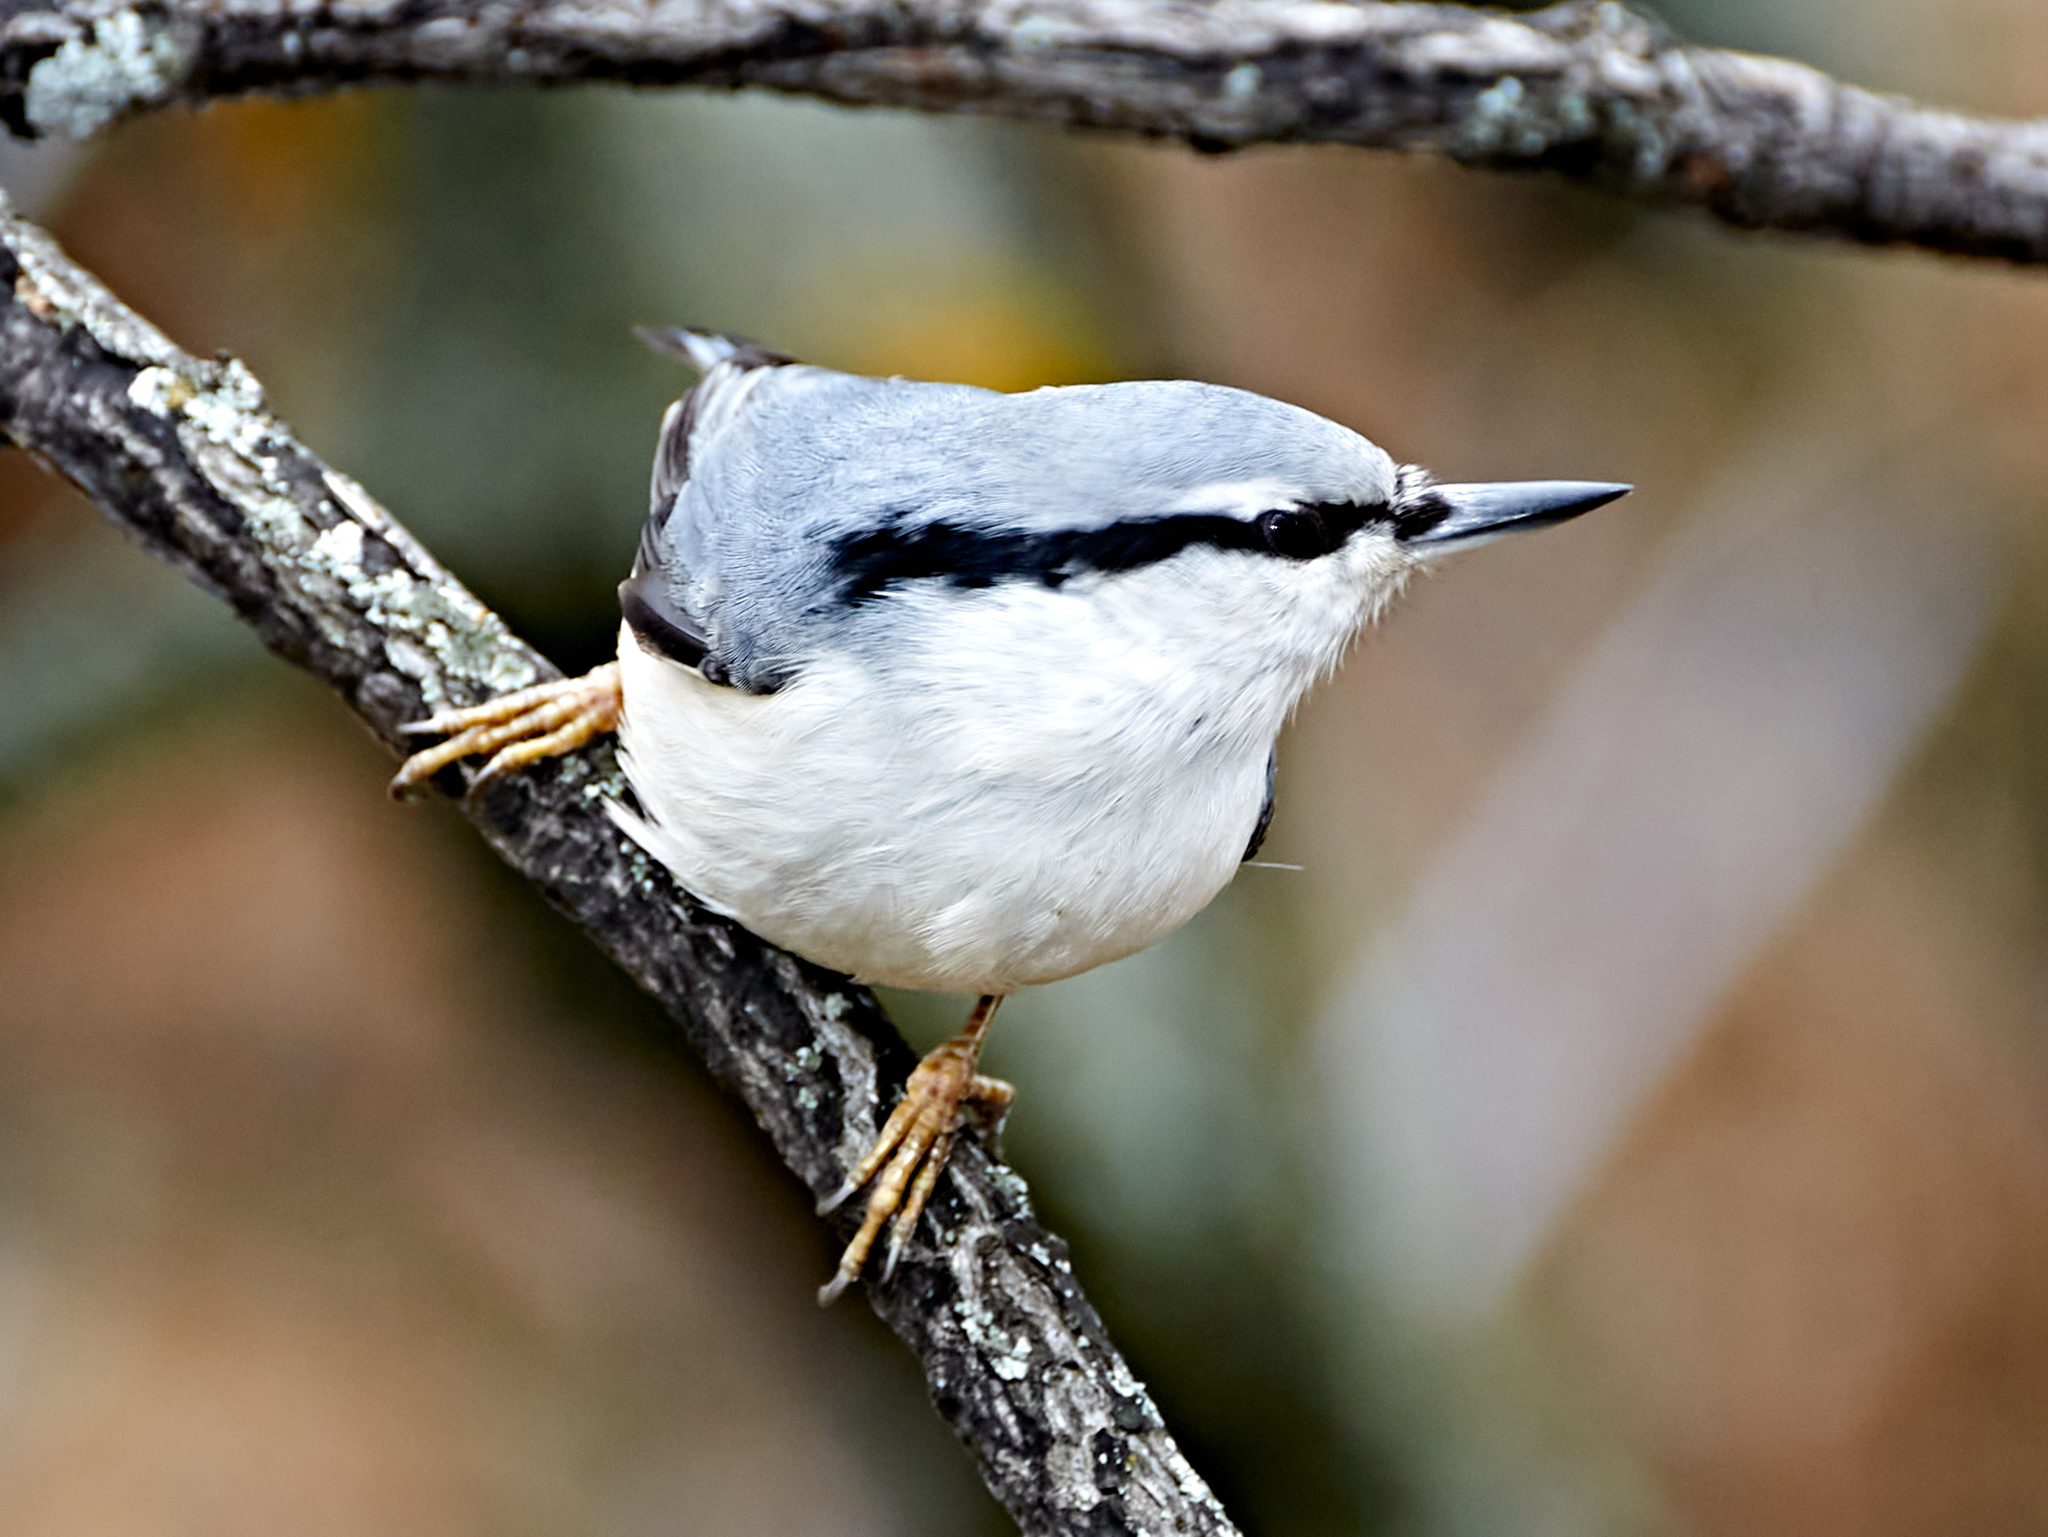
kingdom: Animalia
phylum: Chordata
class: Aves
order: Passeriformes
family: Sittidae
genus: Sitta
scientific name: Sitta europaea
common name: Eurasian nuthatch
